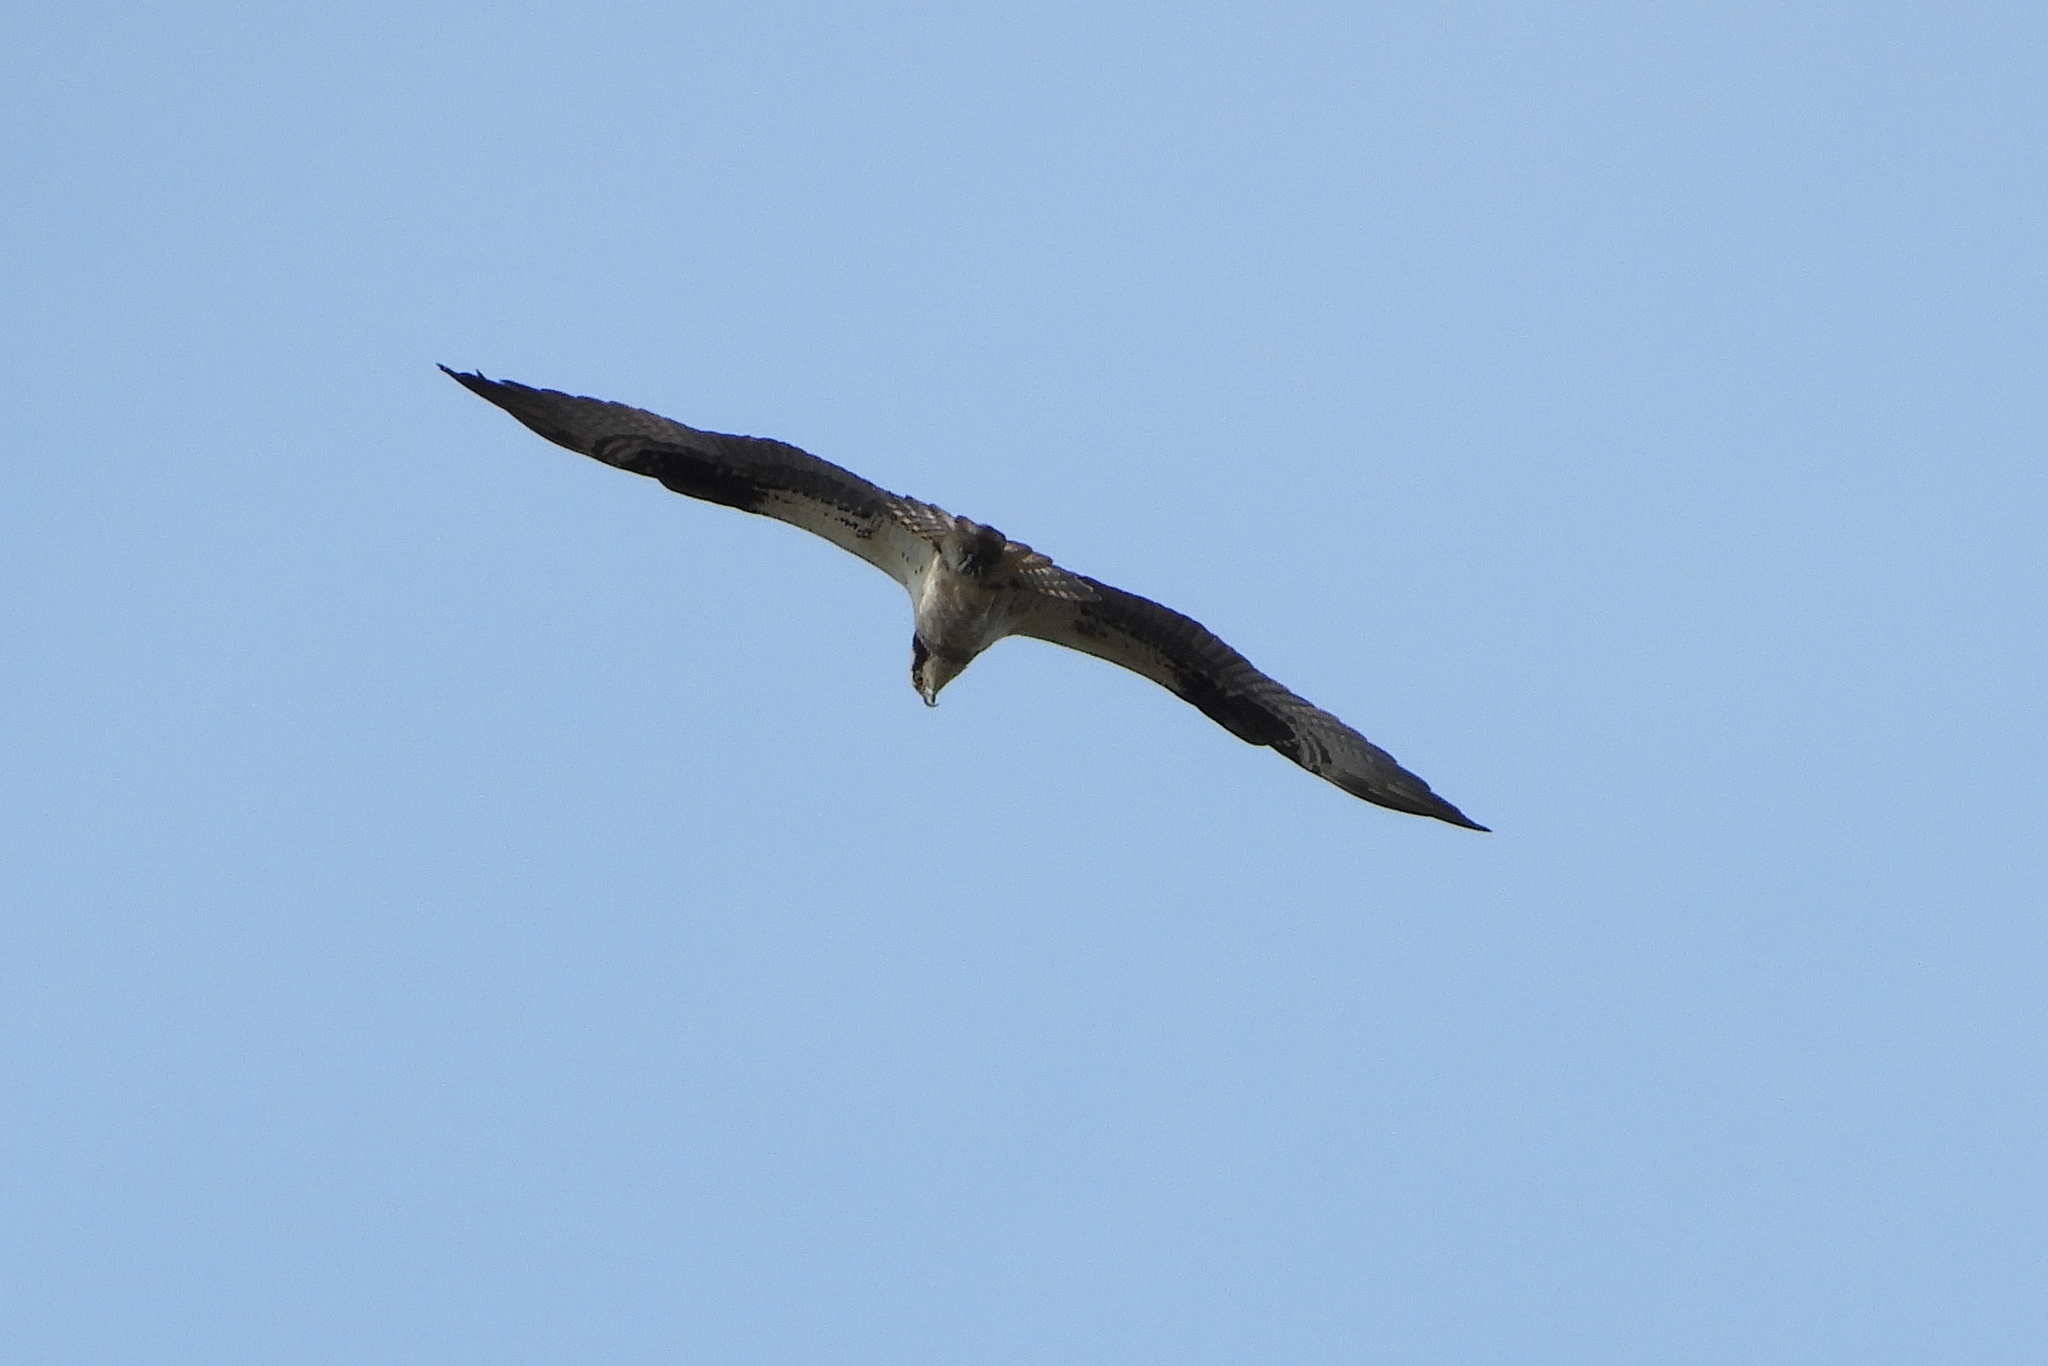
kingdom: Animalia
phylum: Chordata
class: Aves
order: Accipitriformes
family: Pandionidae
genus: Pandion
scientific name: Pandion haliaetus
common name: Osprey
